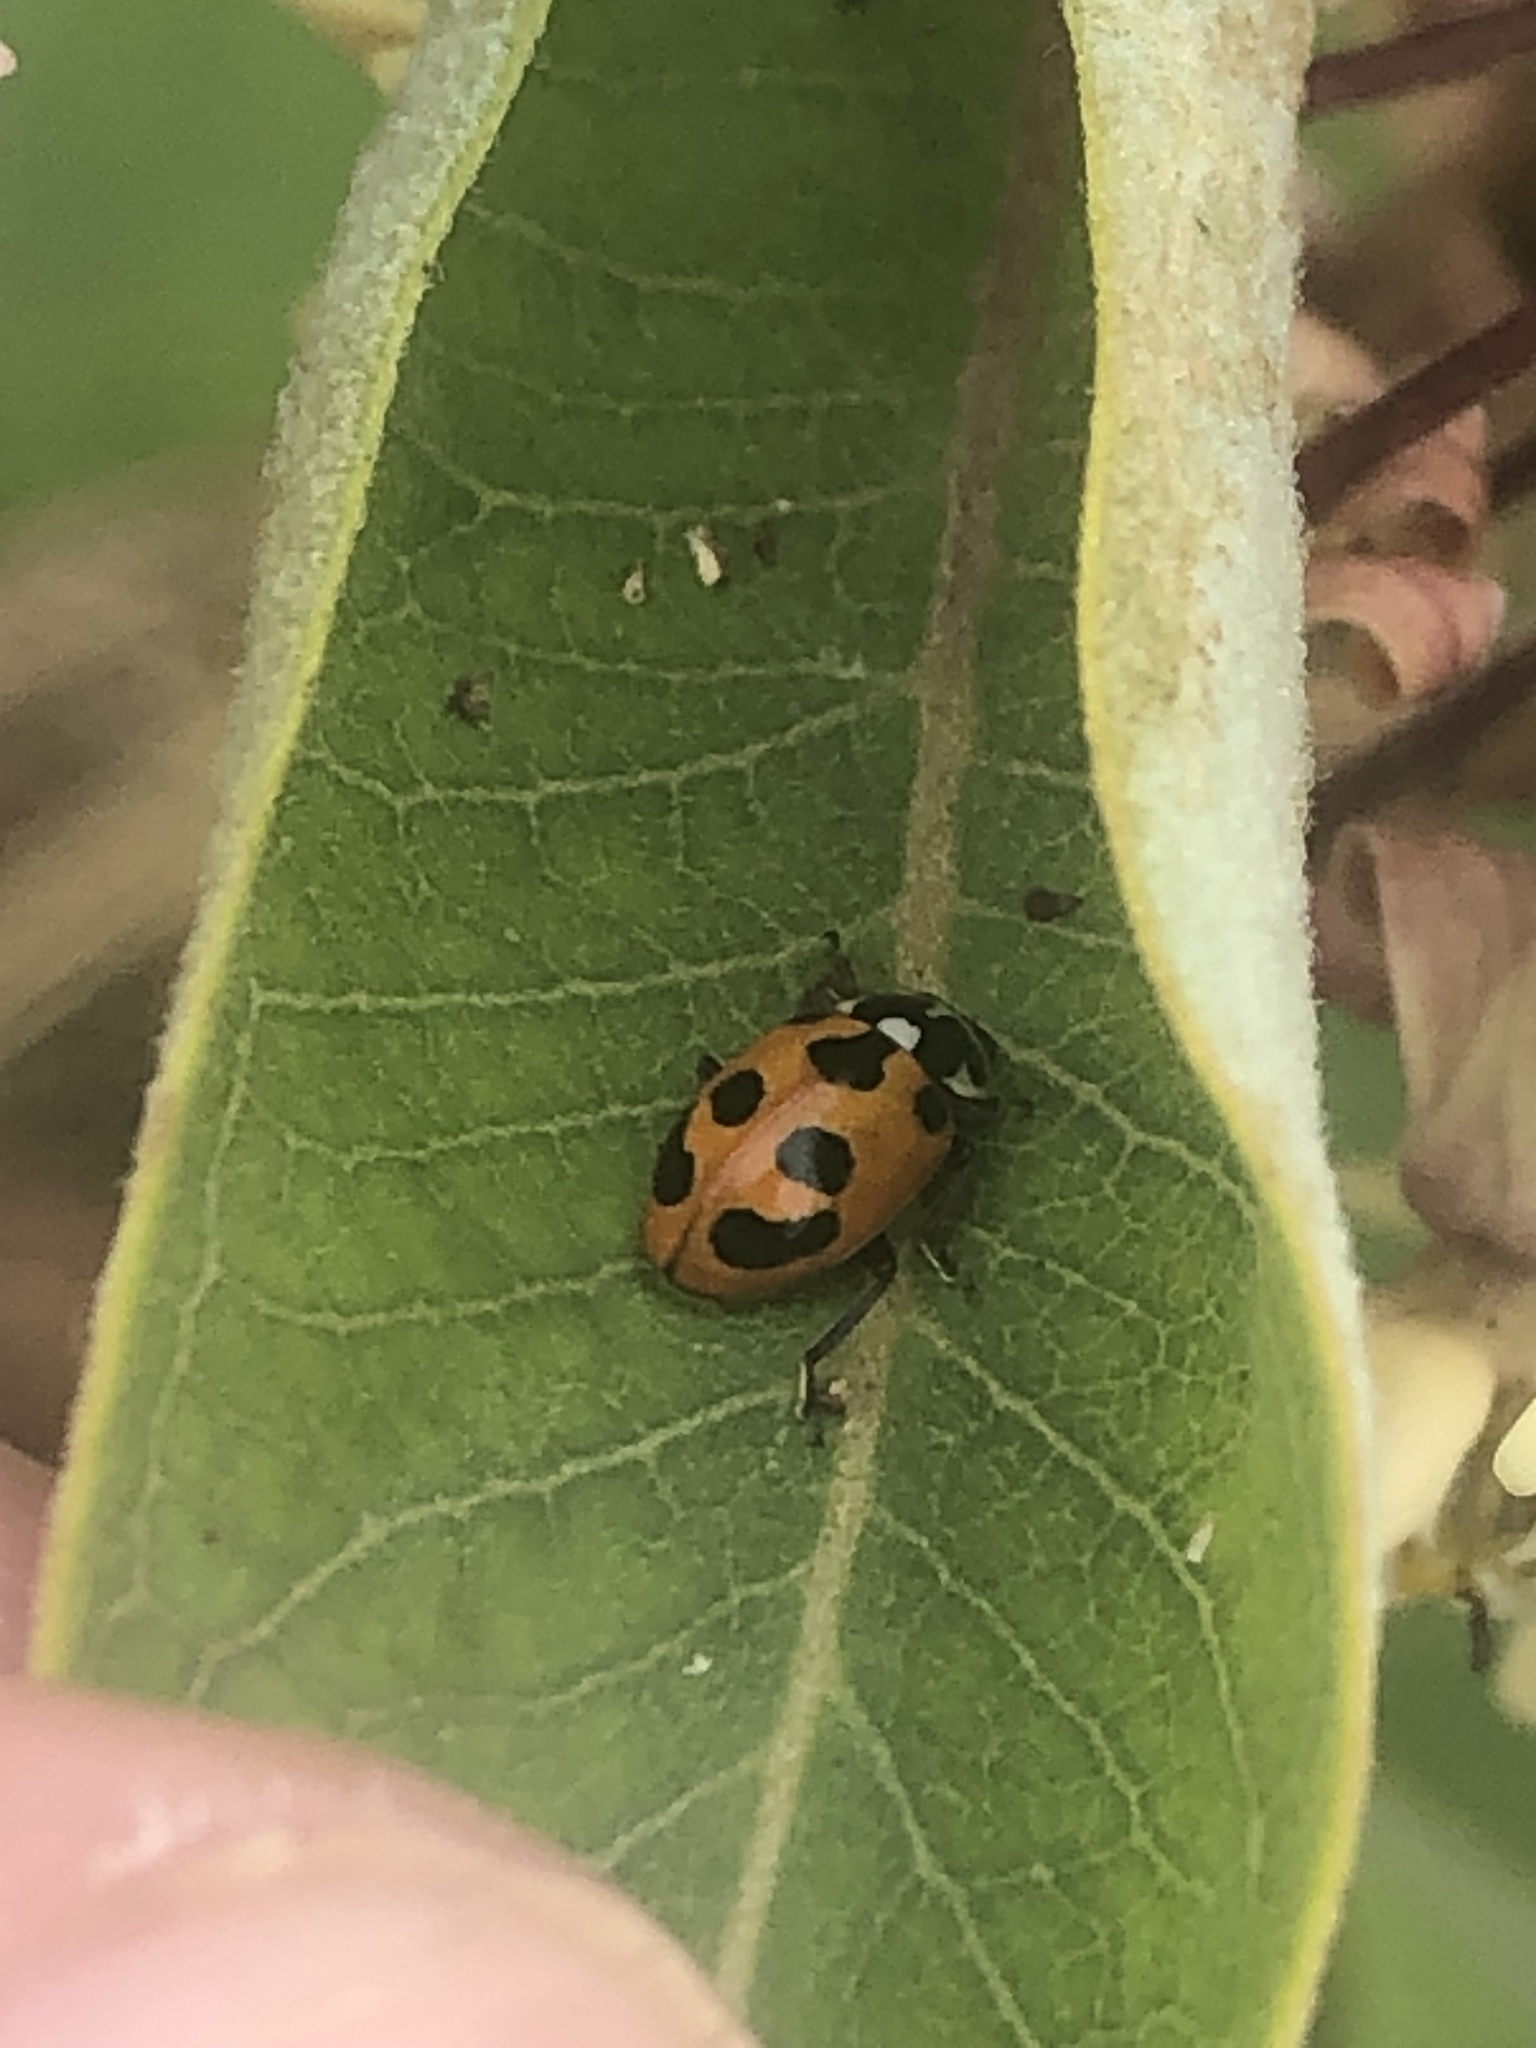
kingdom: Animalia
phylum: Arthropoda
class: Insecta
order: Coleoptera
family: Coccinellidae
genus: Hippodamia
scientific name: Hippodamia parenthesis
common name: Parenthesis lady beetle
